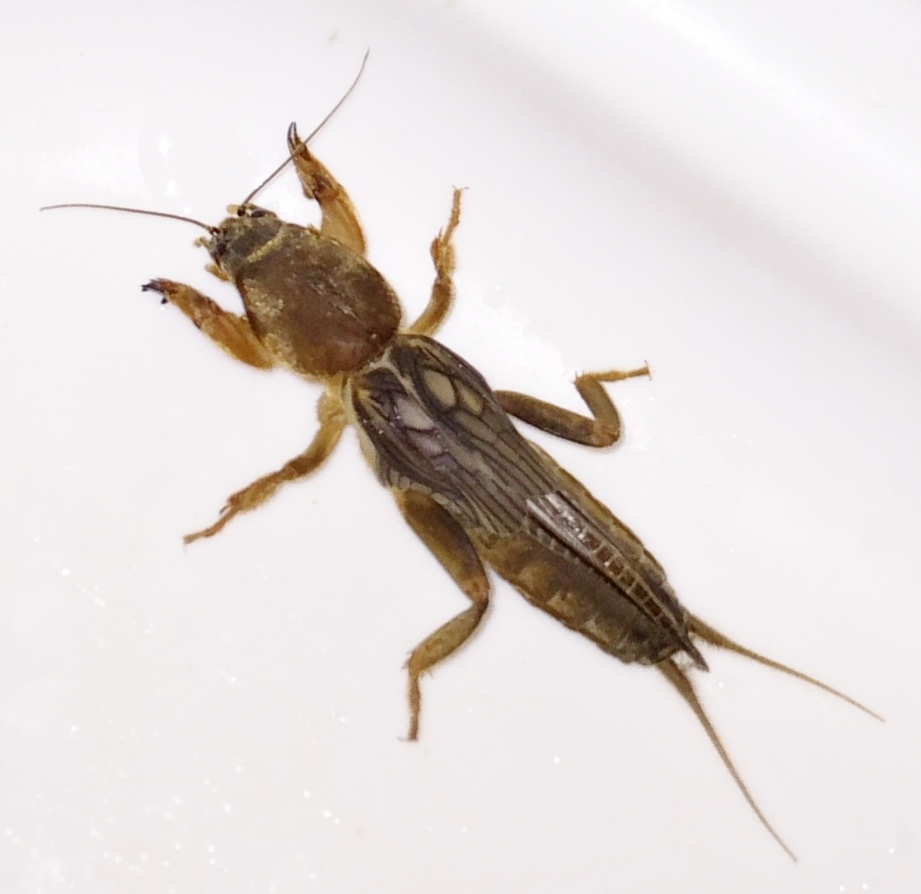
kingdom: Animalia
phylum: Arthropoda
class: Insecta
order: Orthoptera
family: Gryllotalpidae
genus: Neocurtilla
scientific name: Neocurtilla hexadactyla
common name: Northern mole cricket
